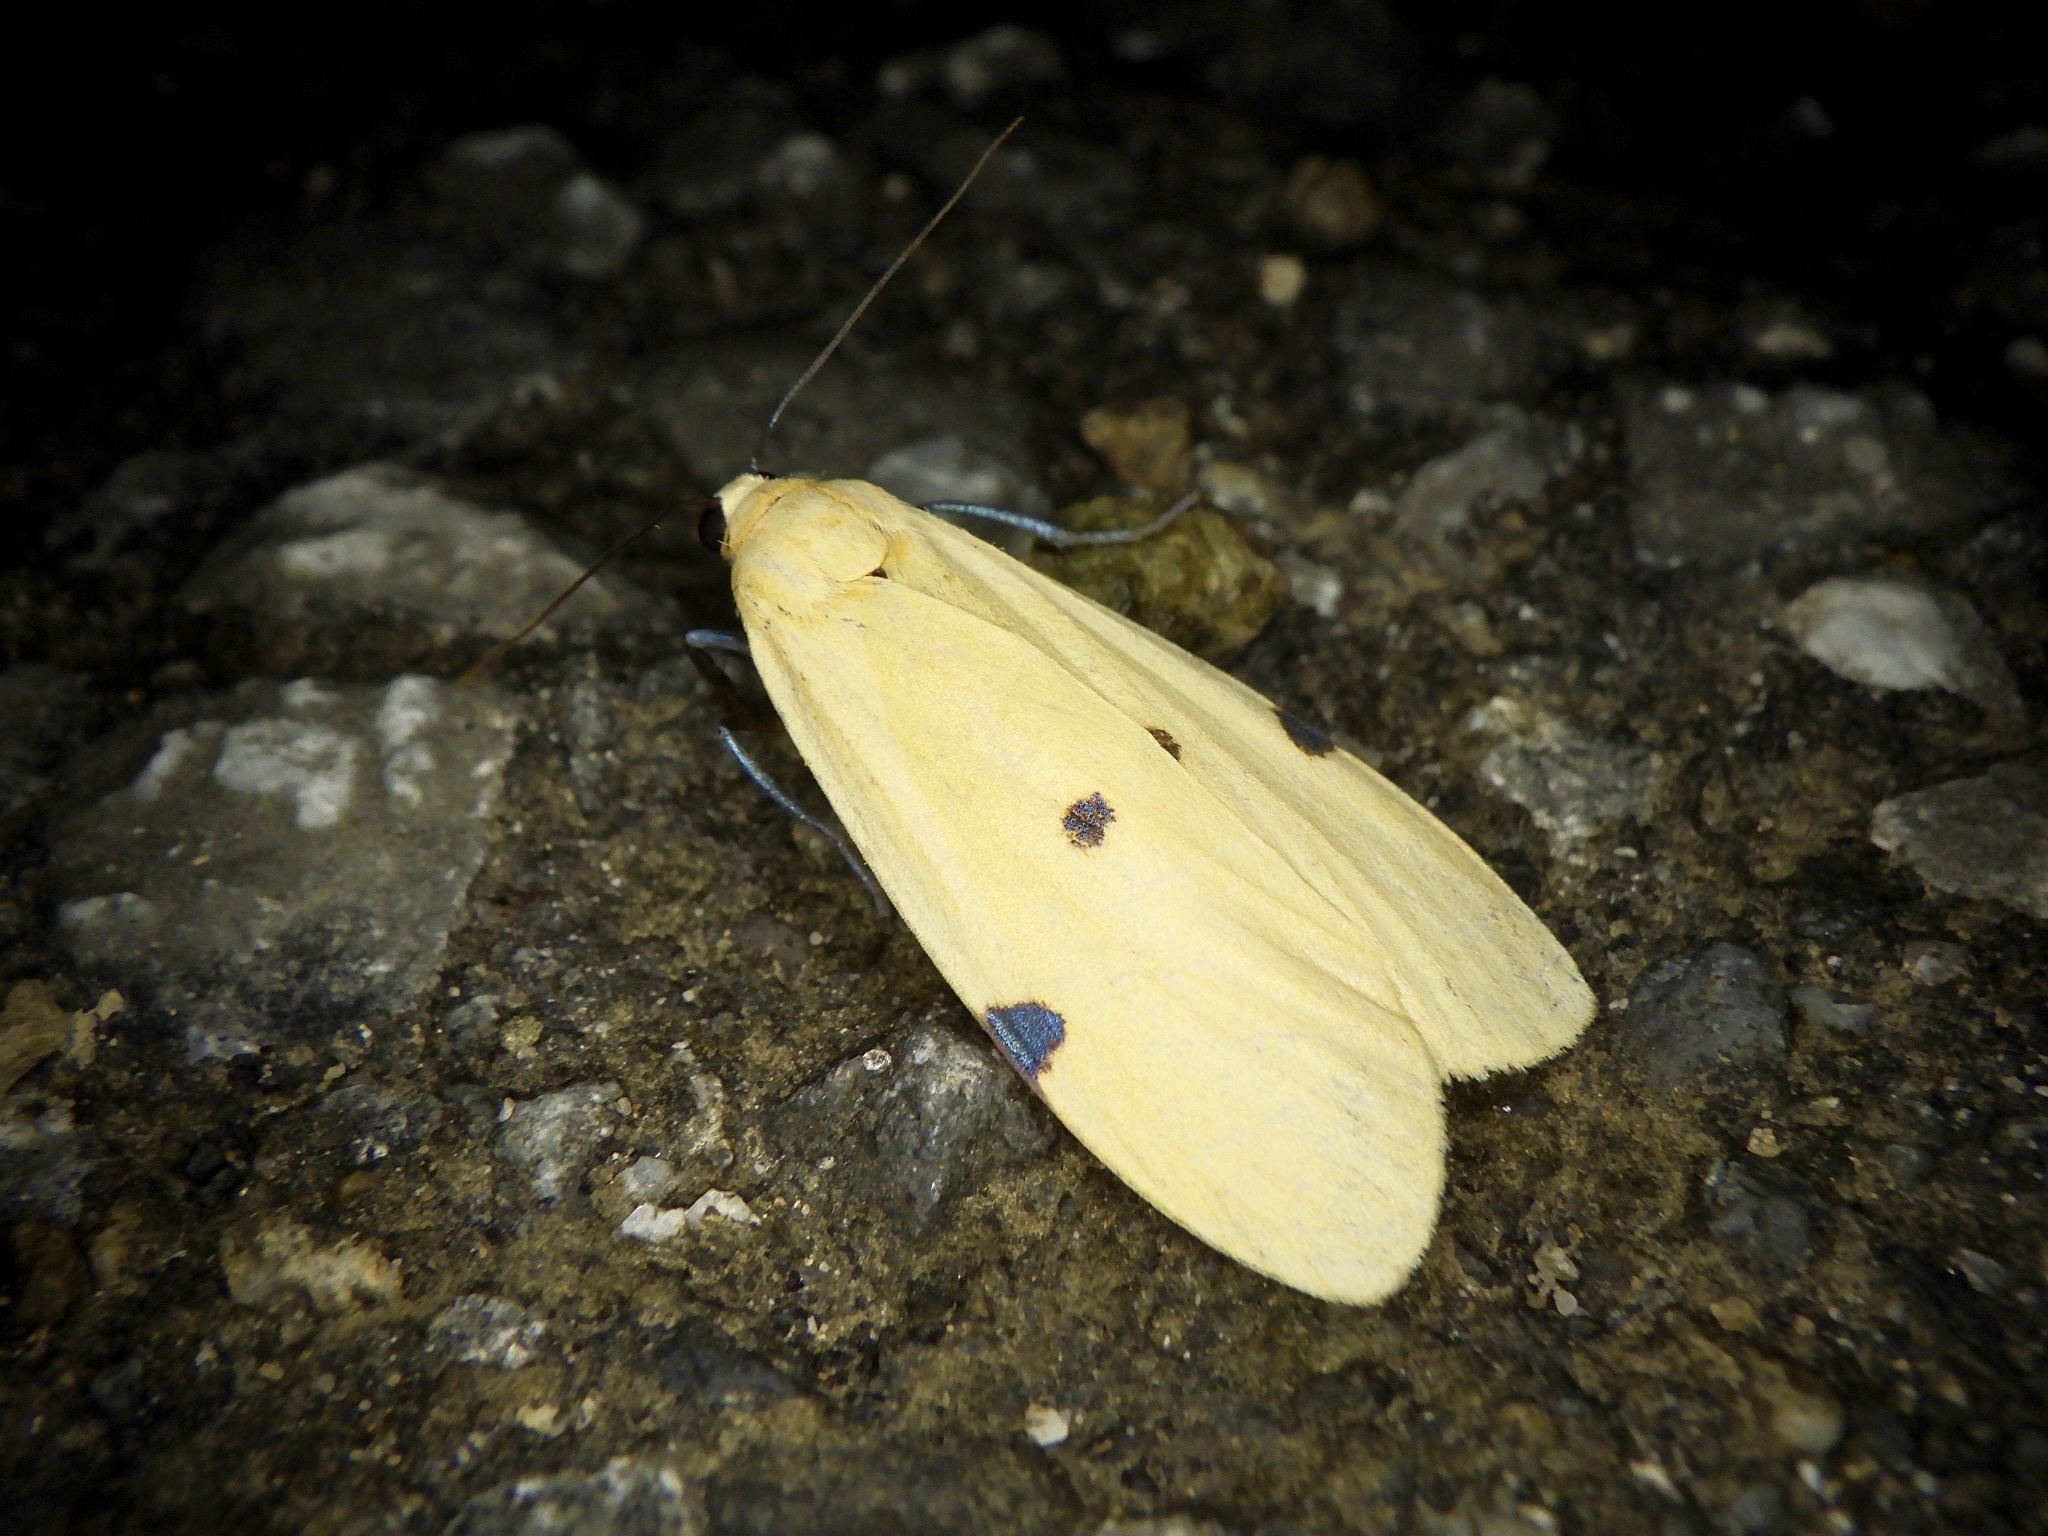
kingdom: Animalia
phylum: Arthropoda
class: Insecta
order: Lepidoptera
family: Erebidae
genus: Lithosia
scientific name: Lithosia quadra
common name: Four-spotted footman
